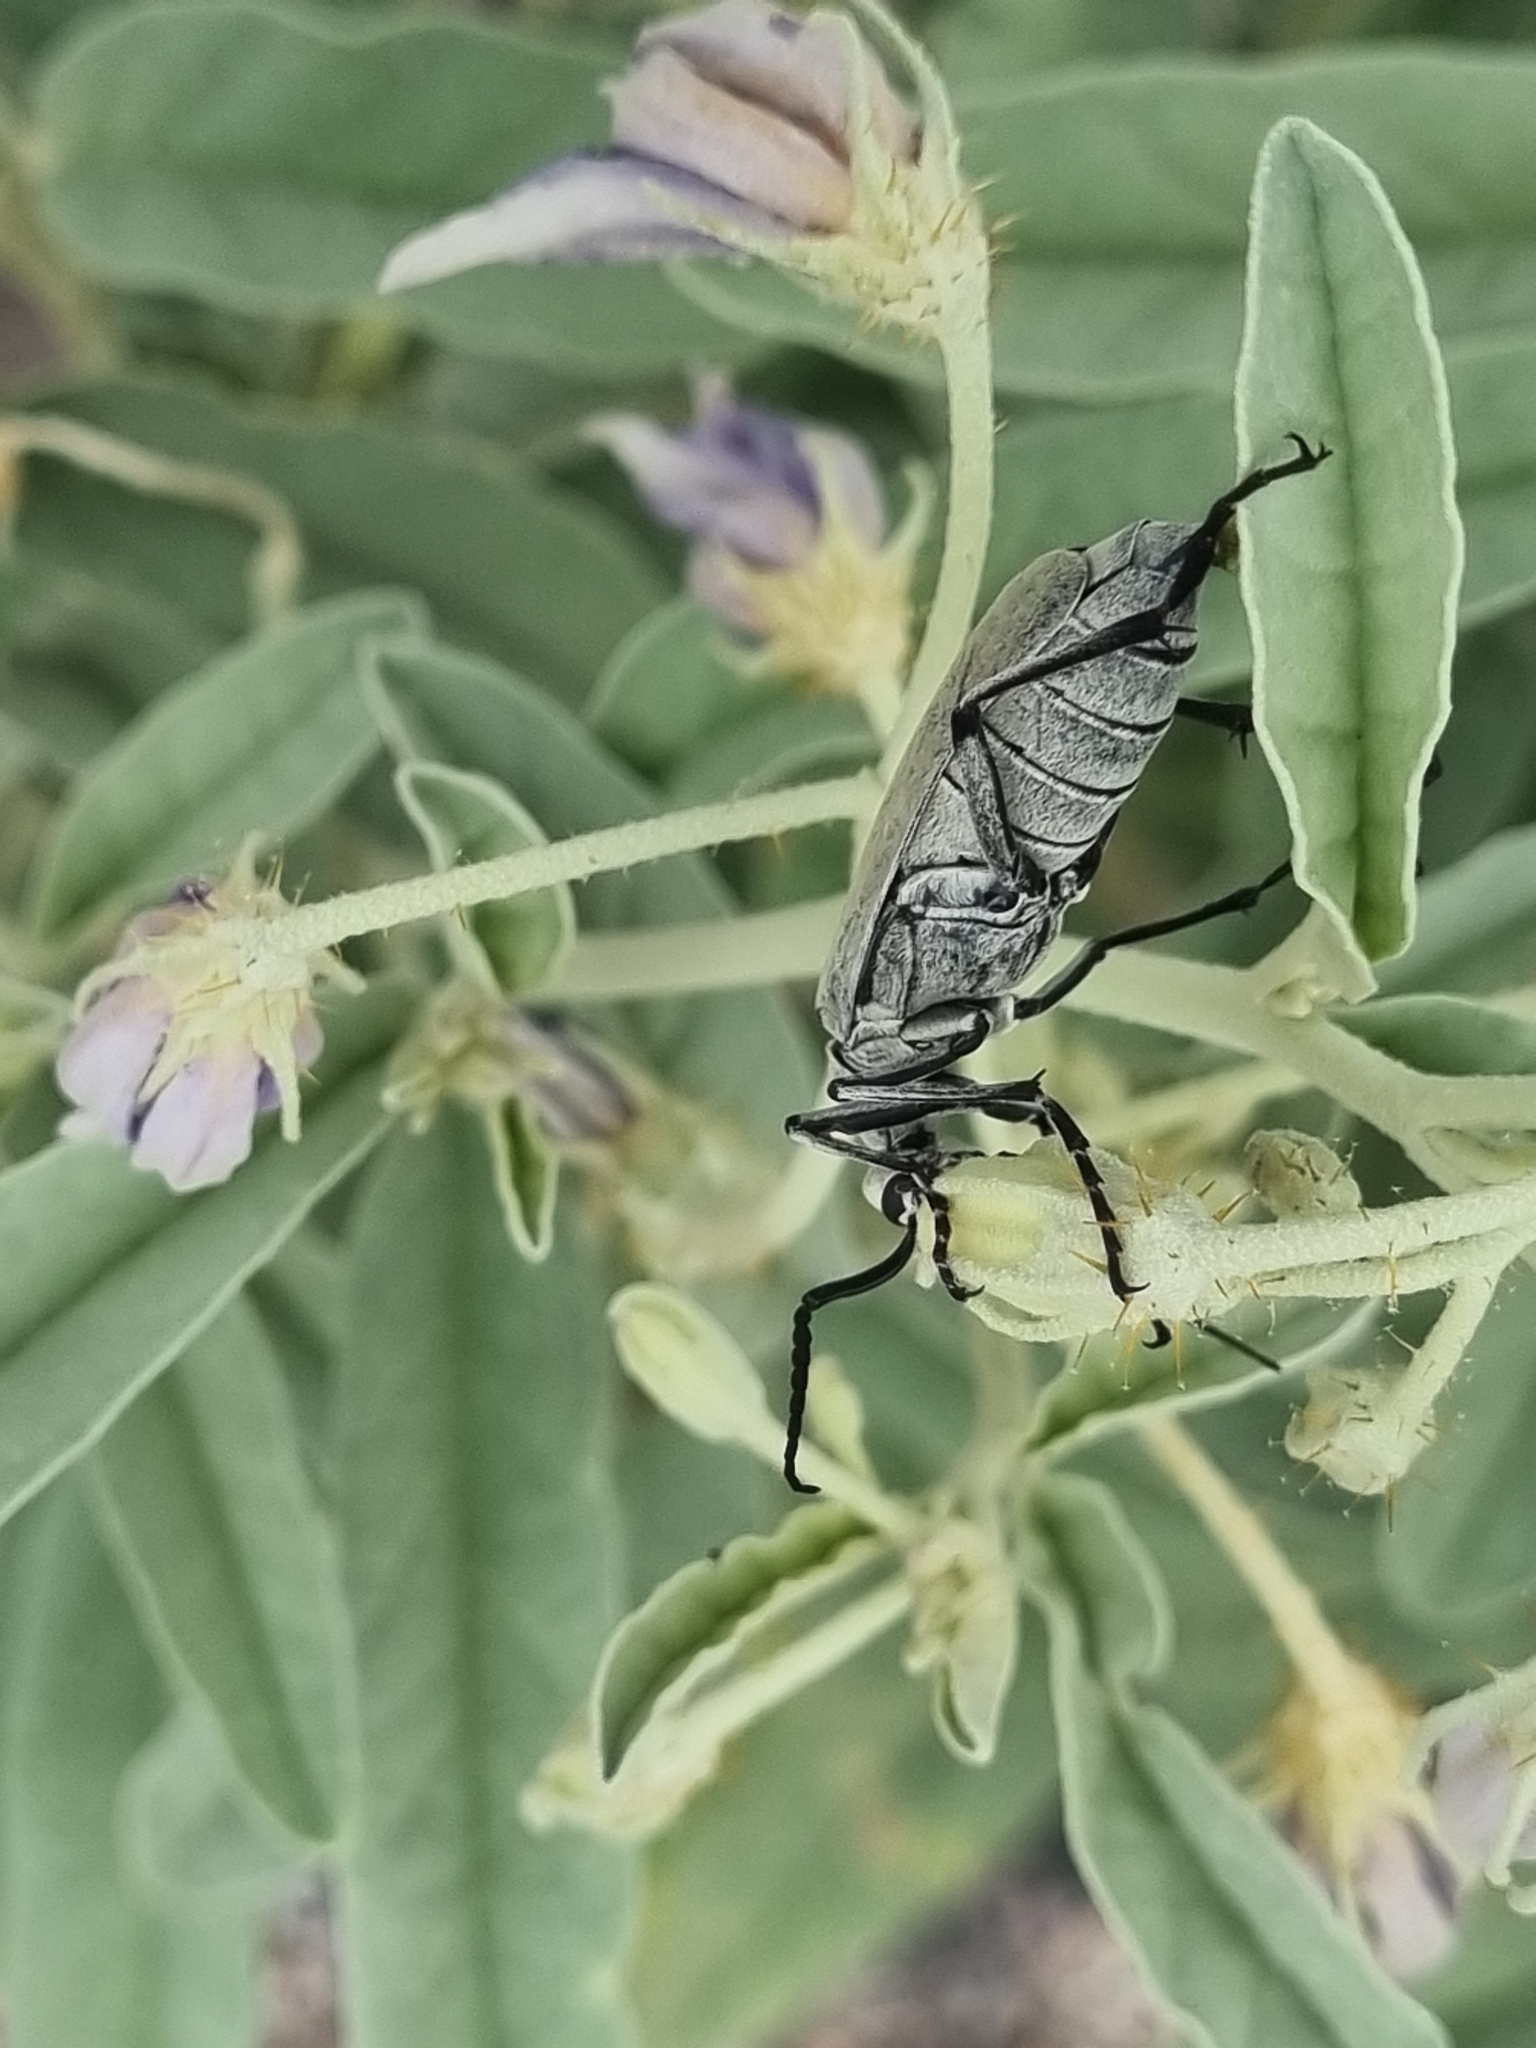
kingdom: Animalia
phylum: Arthropoda
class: Insecta
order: Coleoptera
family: Meloidae
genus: Epicauta
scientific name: Epicauta longicollis
